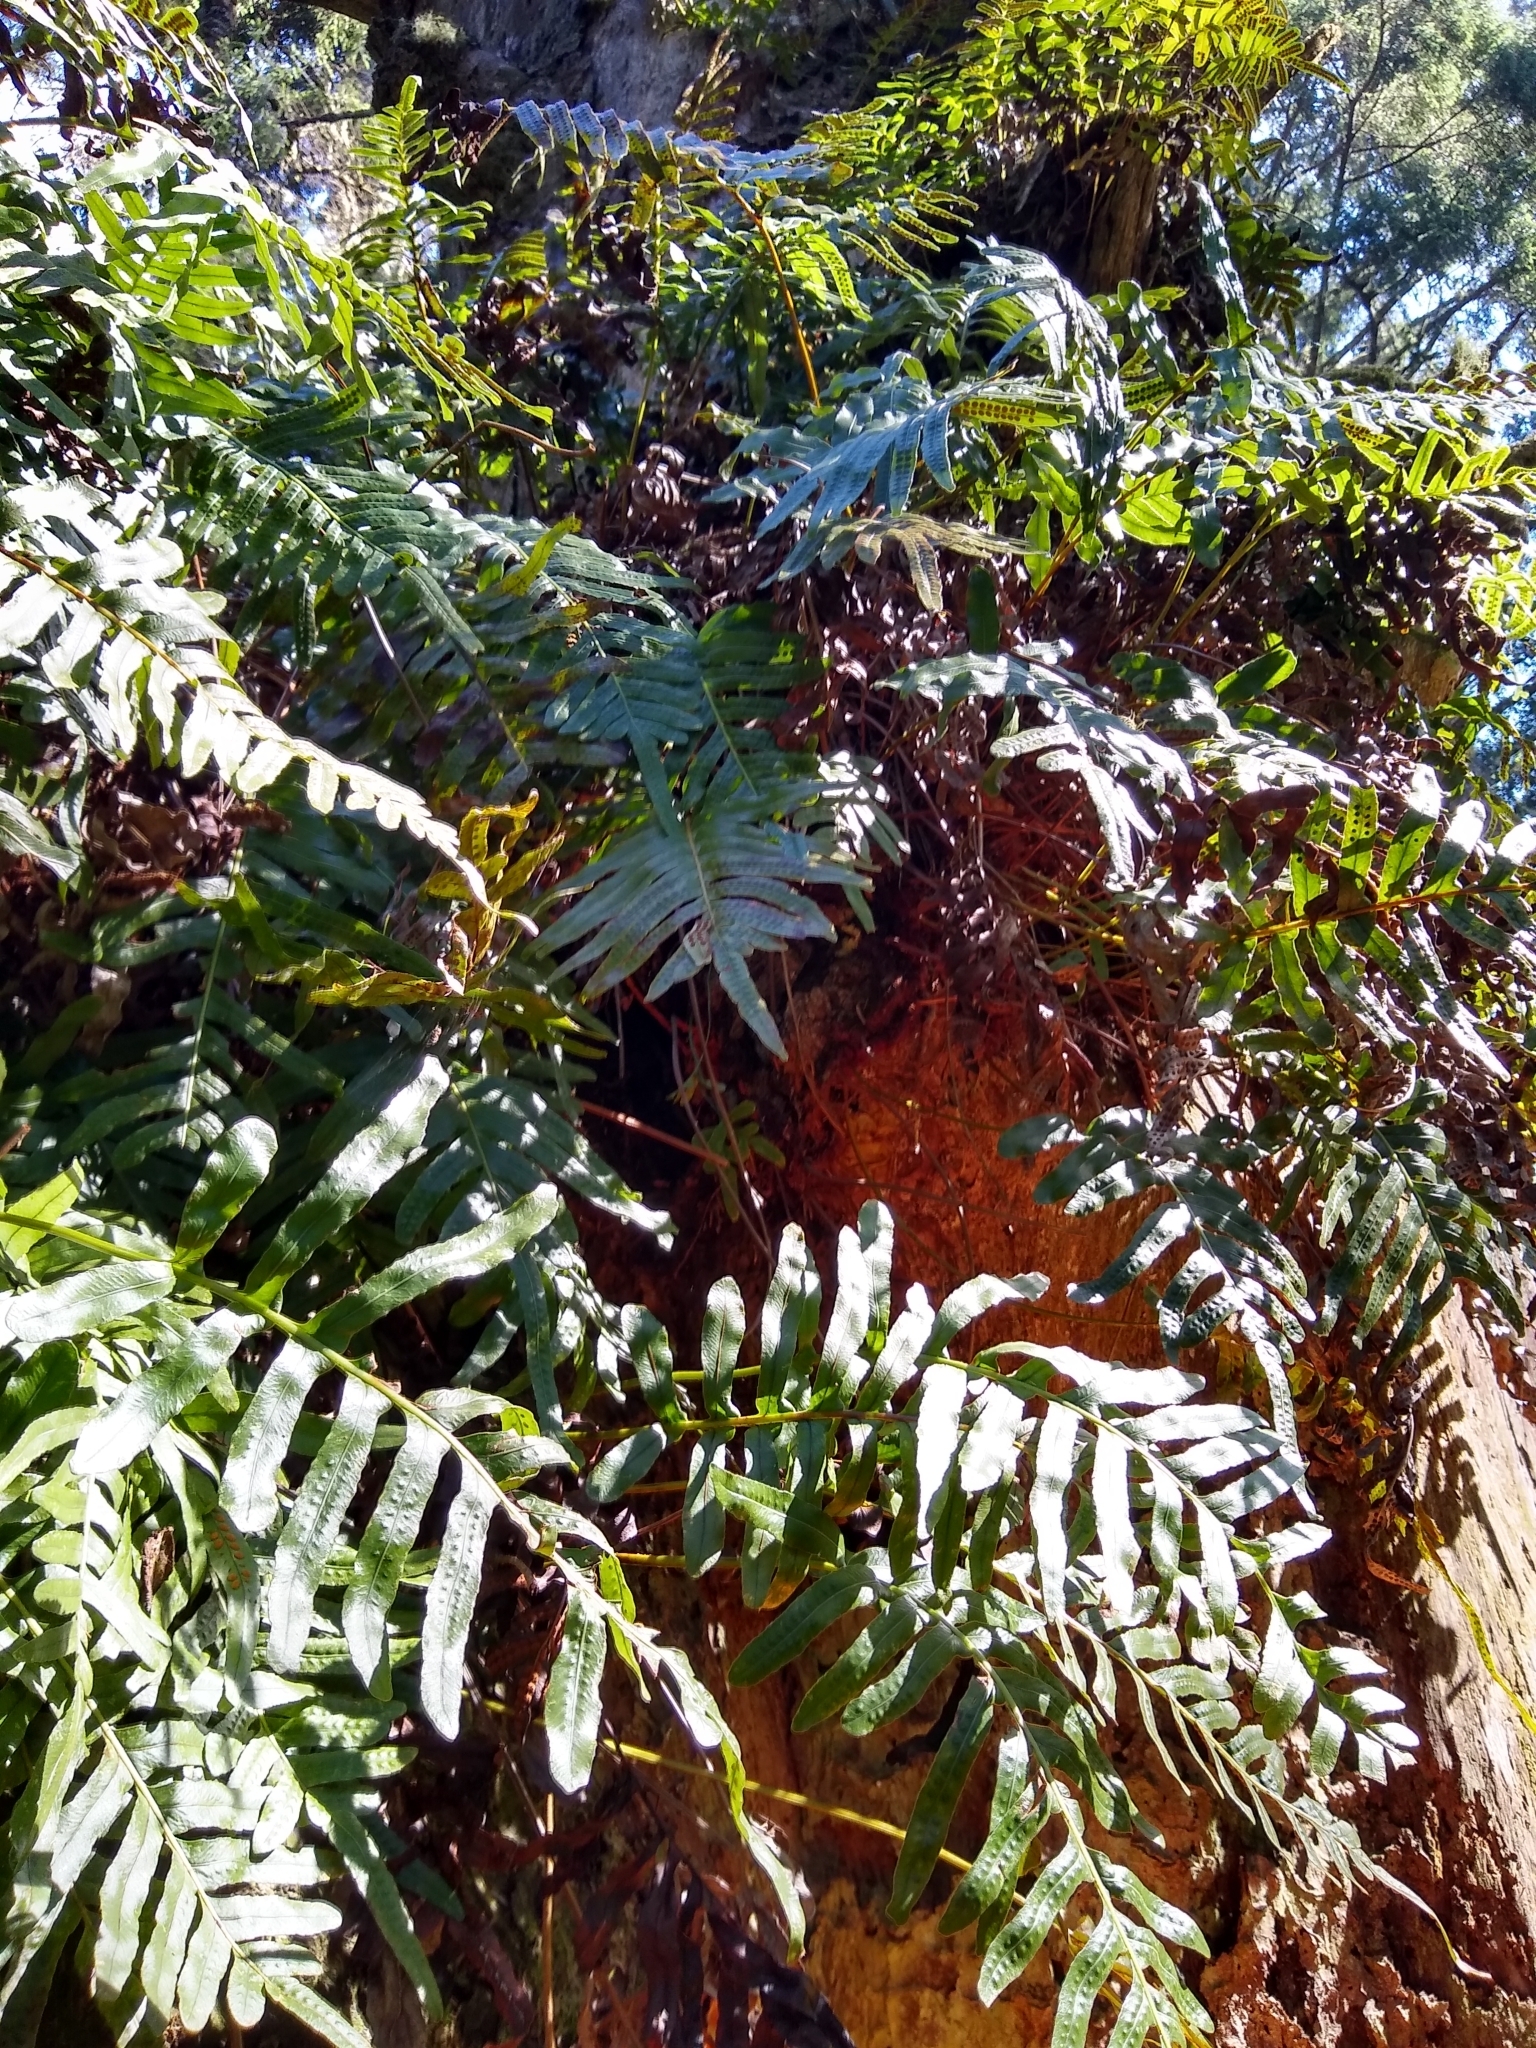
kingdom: Plantae
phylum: Tracheophyta
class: Polypodiopsida
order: Polypodiales
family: Polypodiaceae
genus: Polypodium
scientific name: Polypodium scouleri
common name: Scouler's polypody
